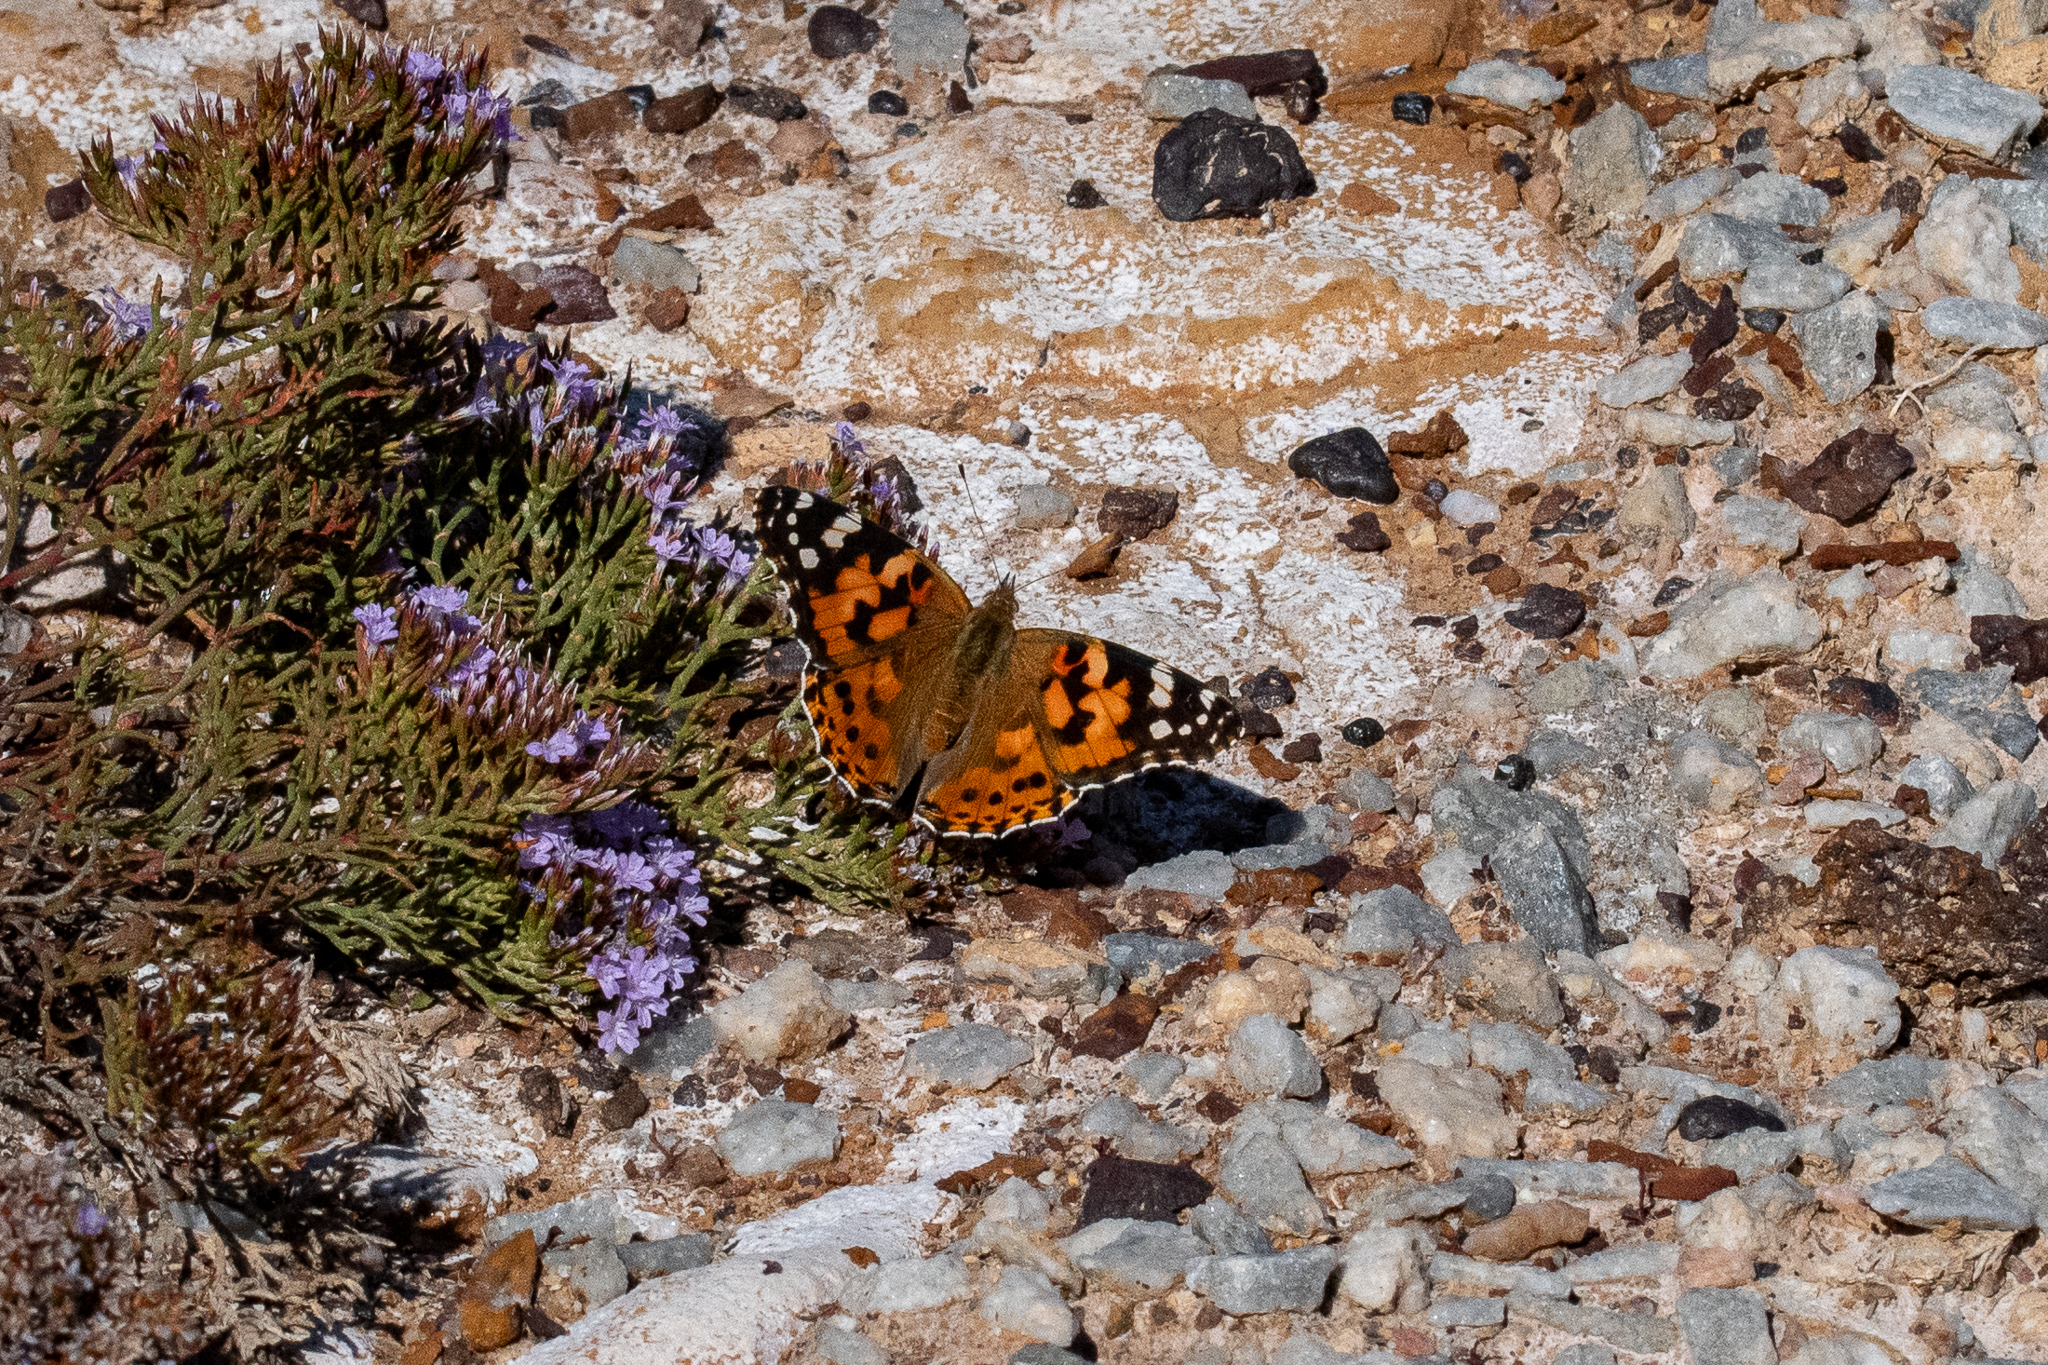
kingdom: Animalia
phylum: Arthropoda
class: Insecta
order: Lepidoptera
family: Nymphalidae
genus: Vanessa
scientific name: Vanessa cardui
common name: Painted lady
